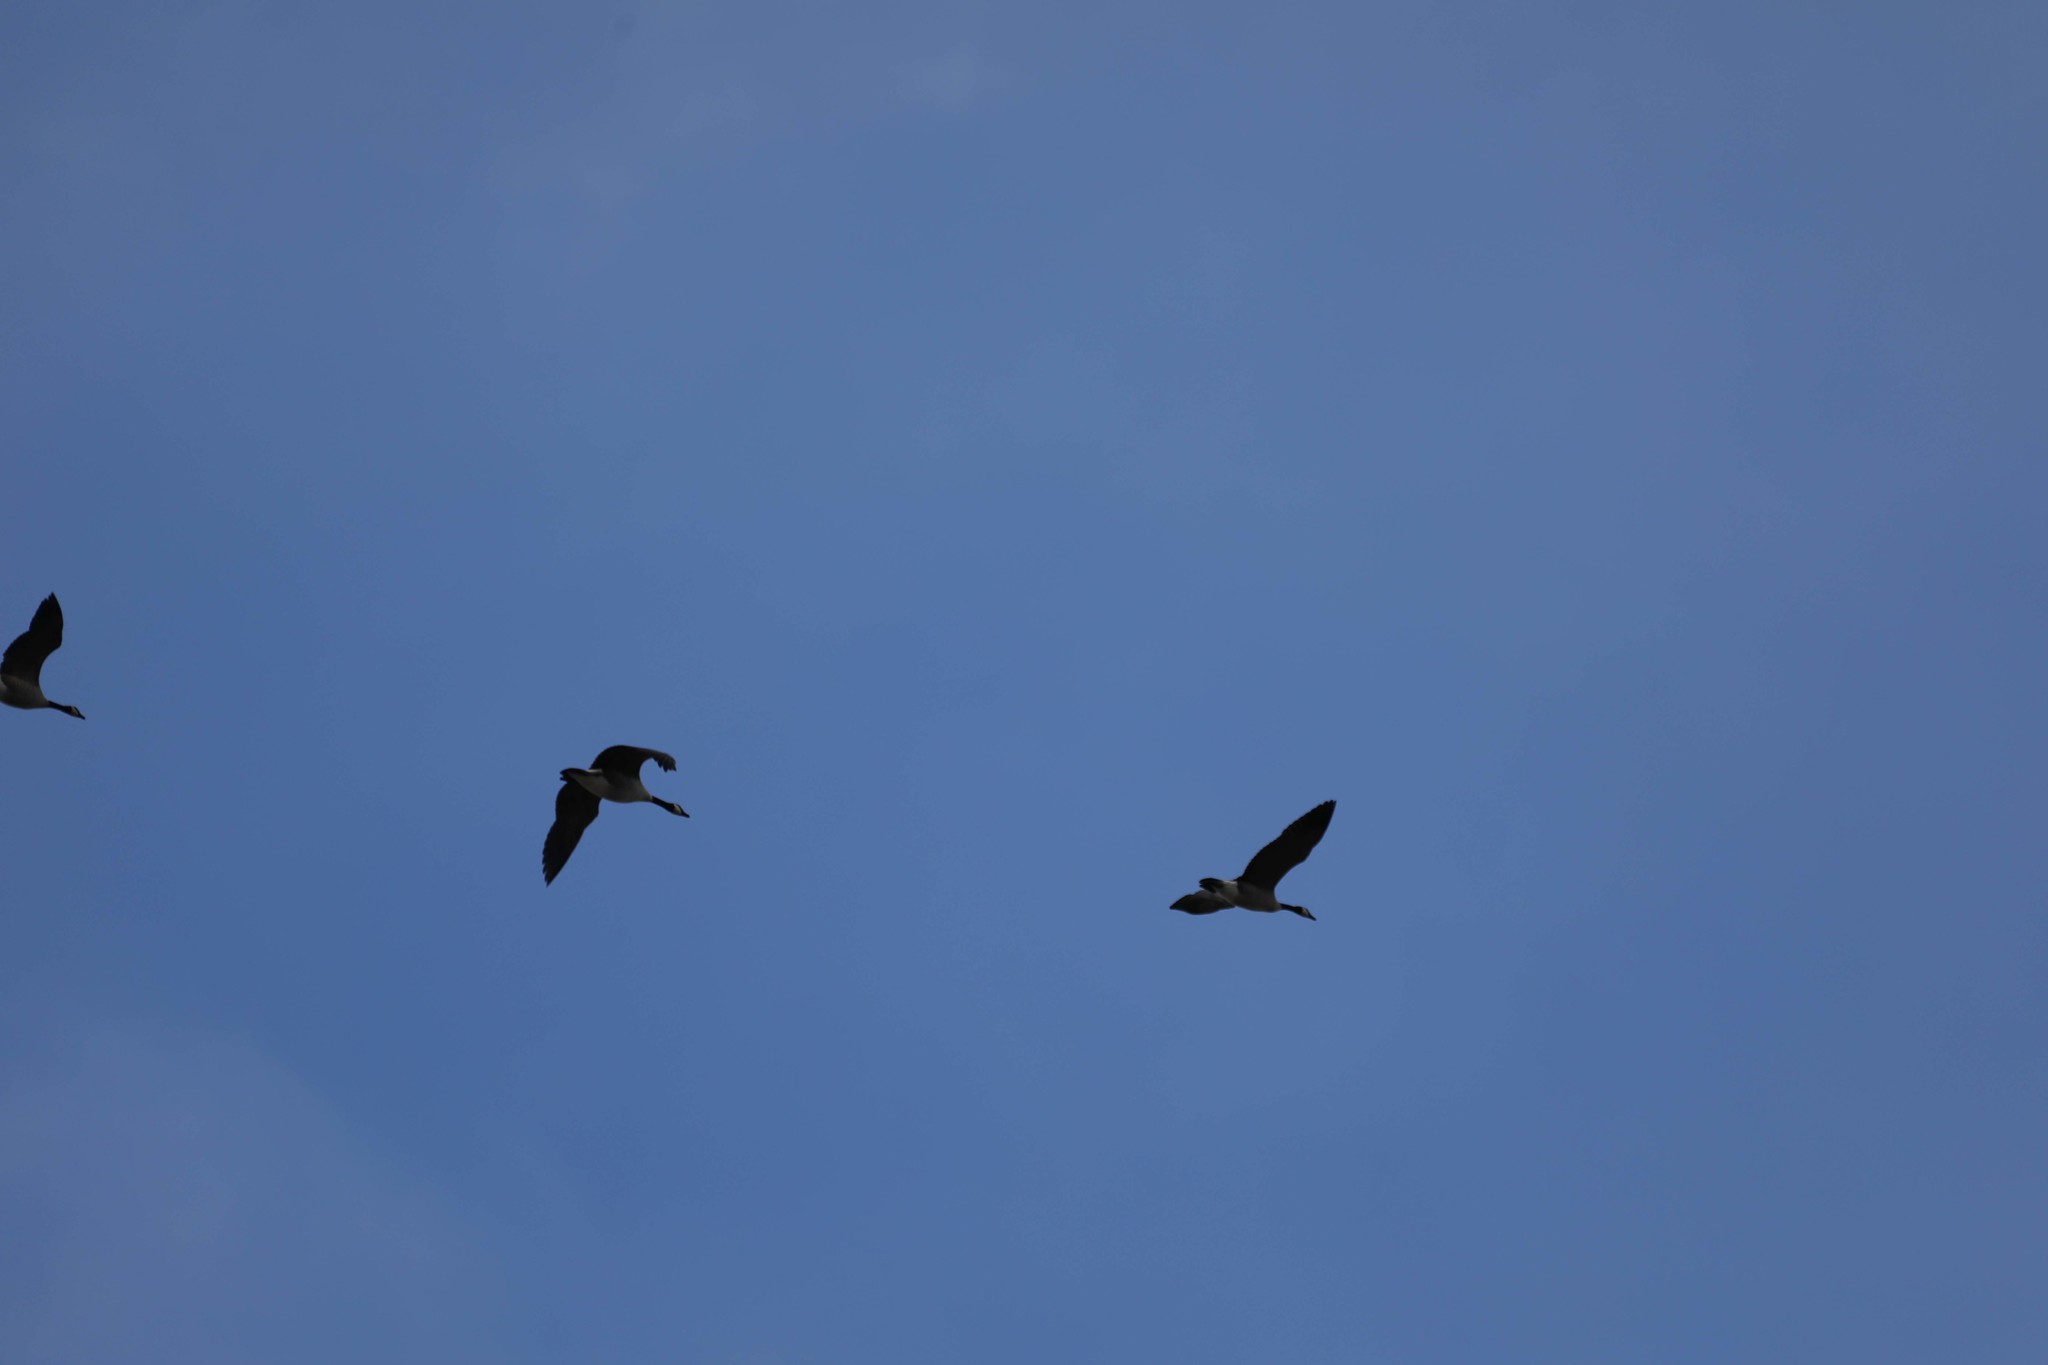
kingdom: Animalia
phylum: Chordata
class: Aves
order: Anseriformes
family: Anatidae
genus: Branta
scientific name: Branta canadensis
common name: Canada goose
